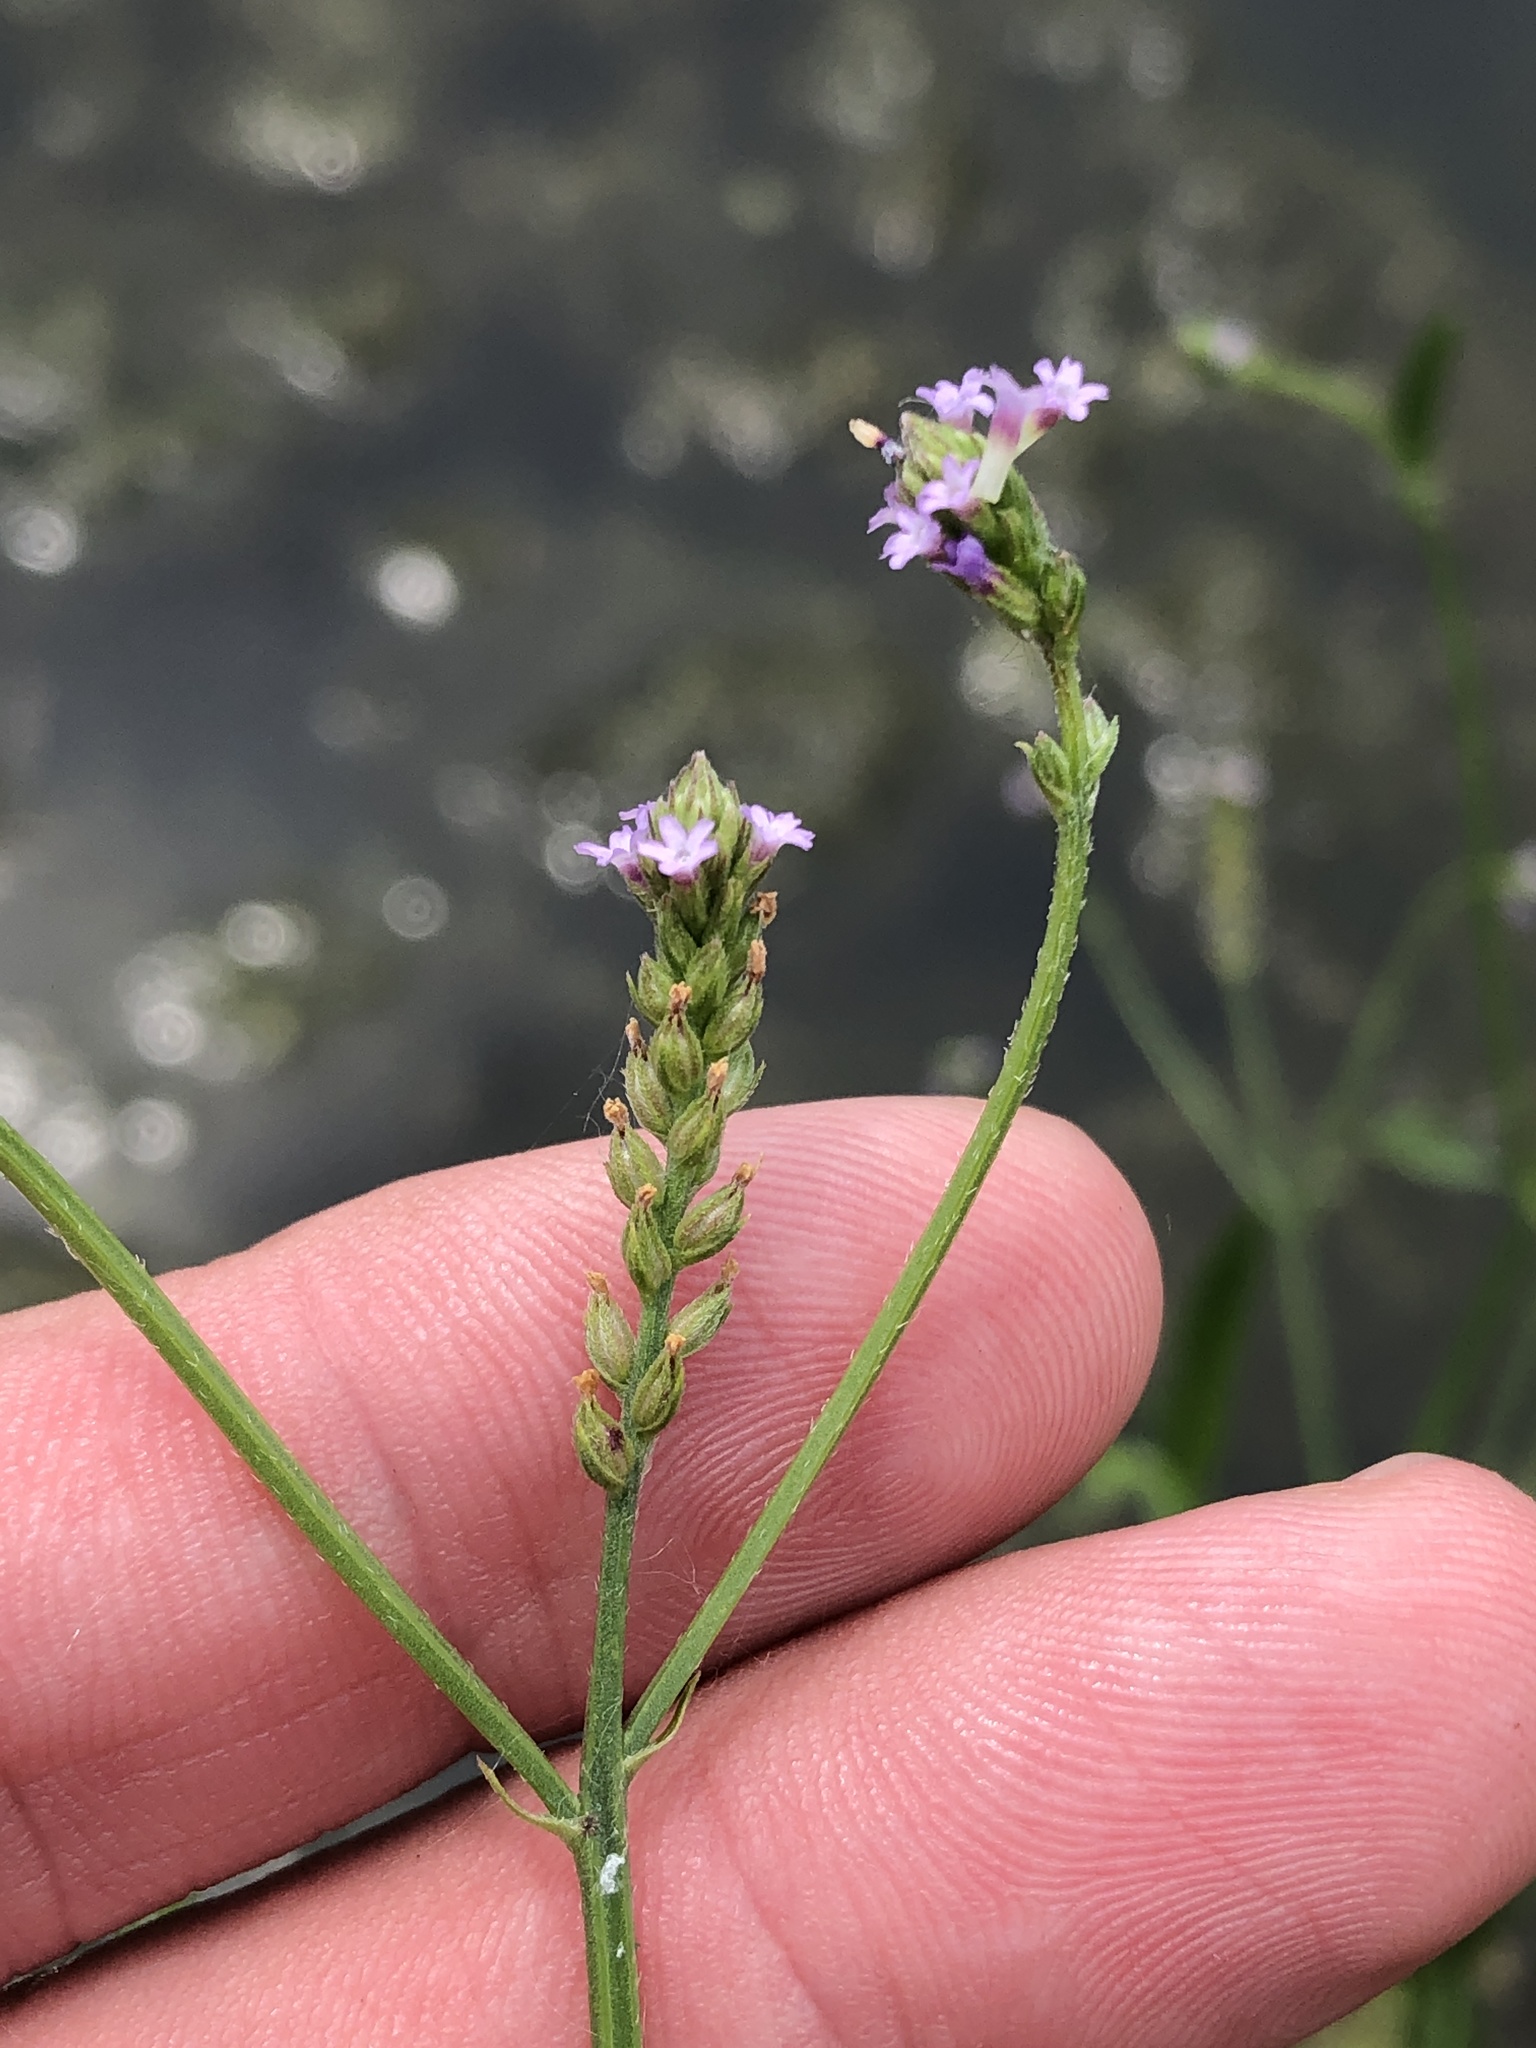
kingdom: Plantae
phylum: Tracheophyta
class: Magnoliopsida
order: Lamiales
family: Verbenaceae
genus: Verbena
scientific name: Verbena brasiliensis
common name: Brazilian vervain
